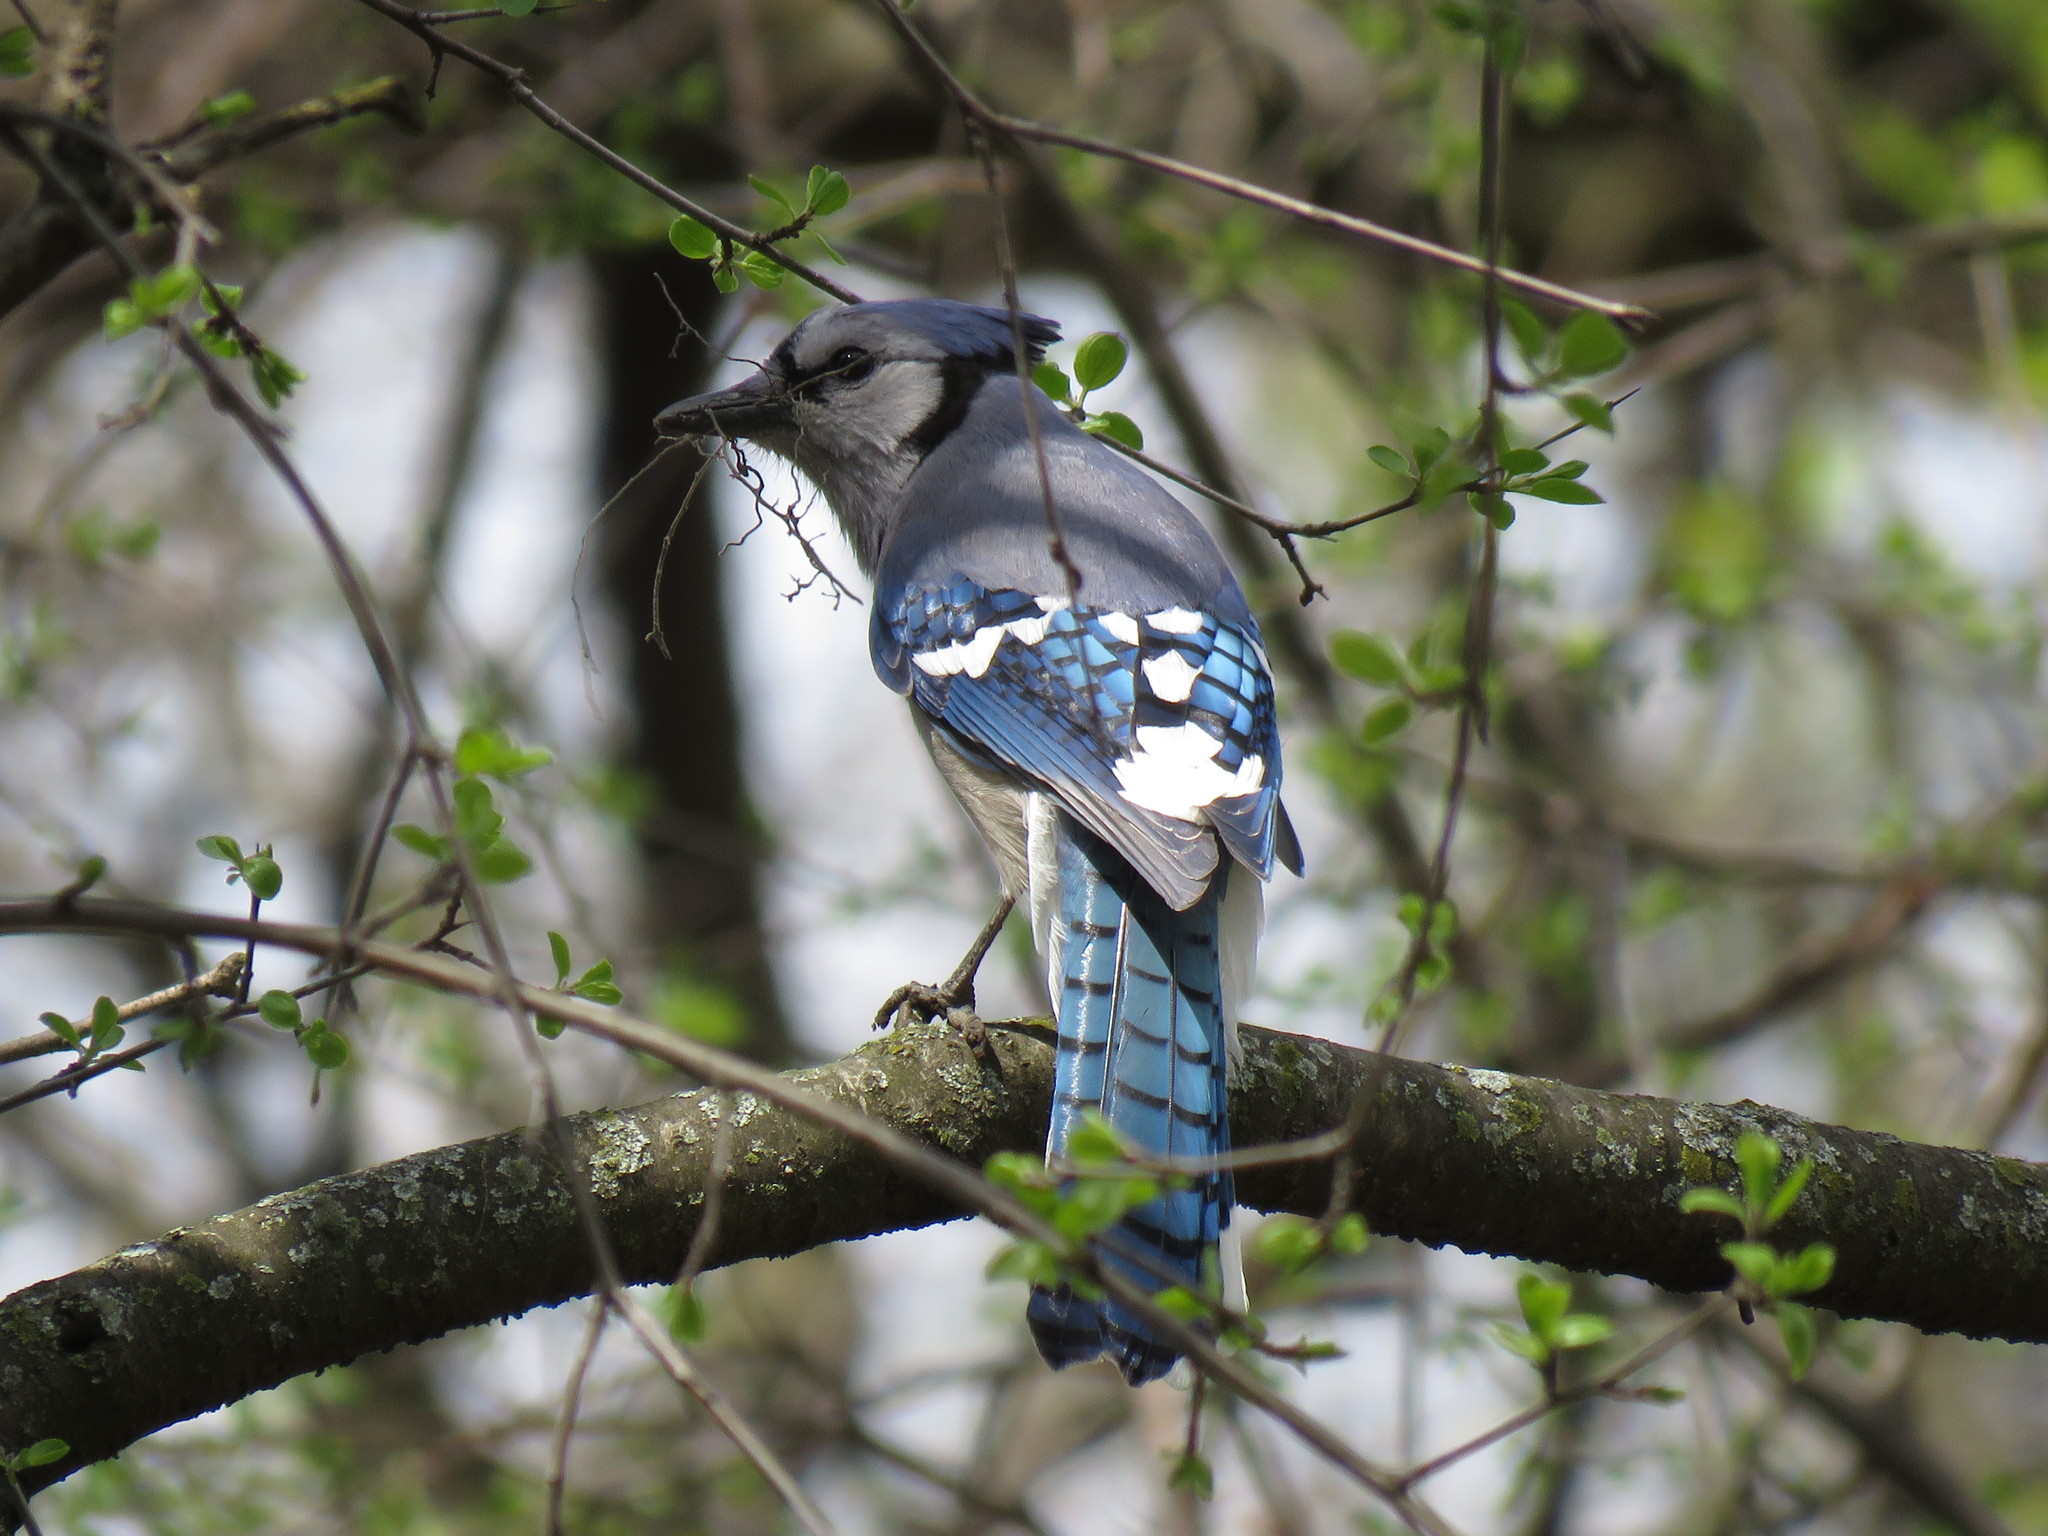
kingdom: Animalia
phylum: Chordata
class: Aves
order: Passeriformes
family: Corvidae
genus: Cyanocitta
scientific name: Cyanocitta cristata
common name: Blue jay
